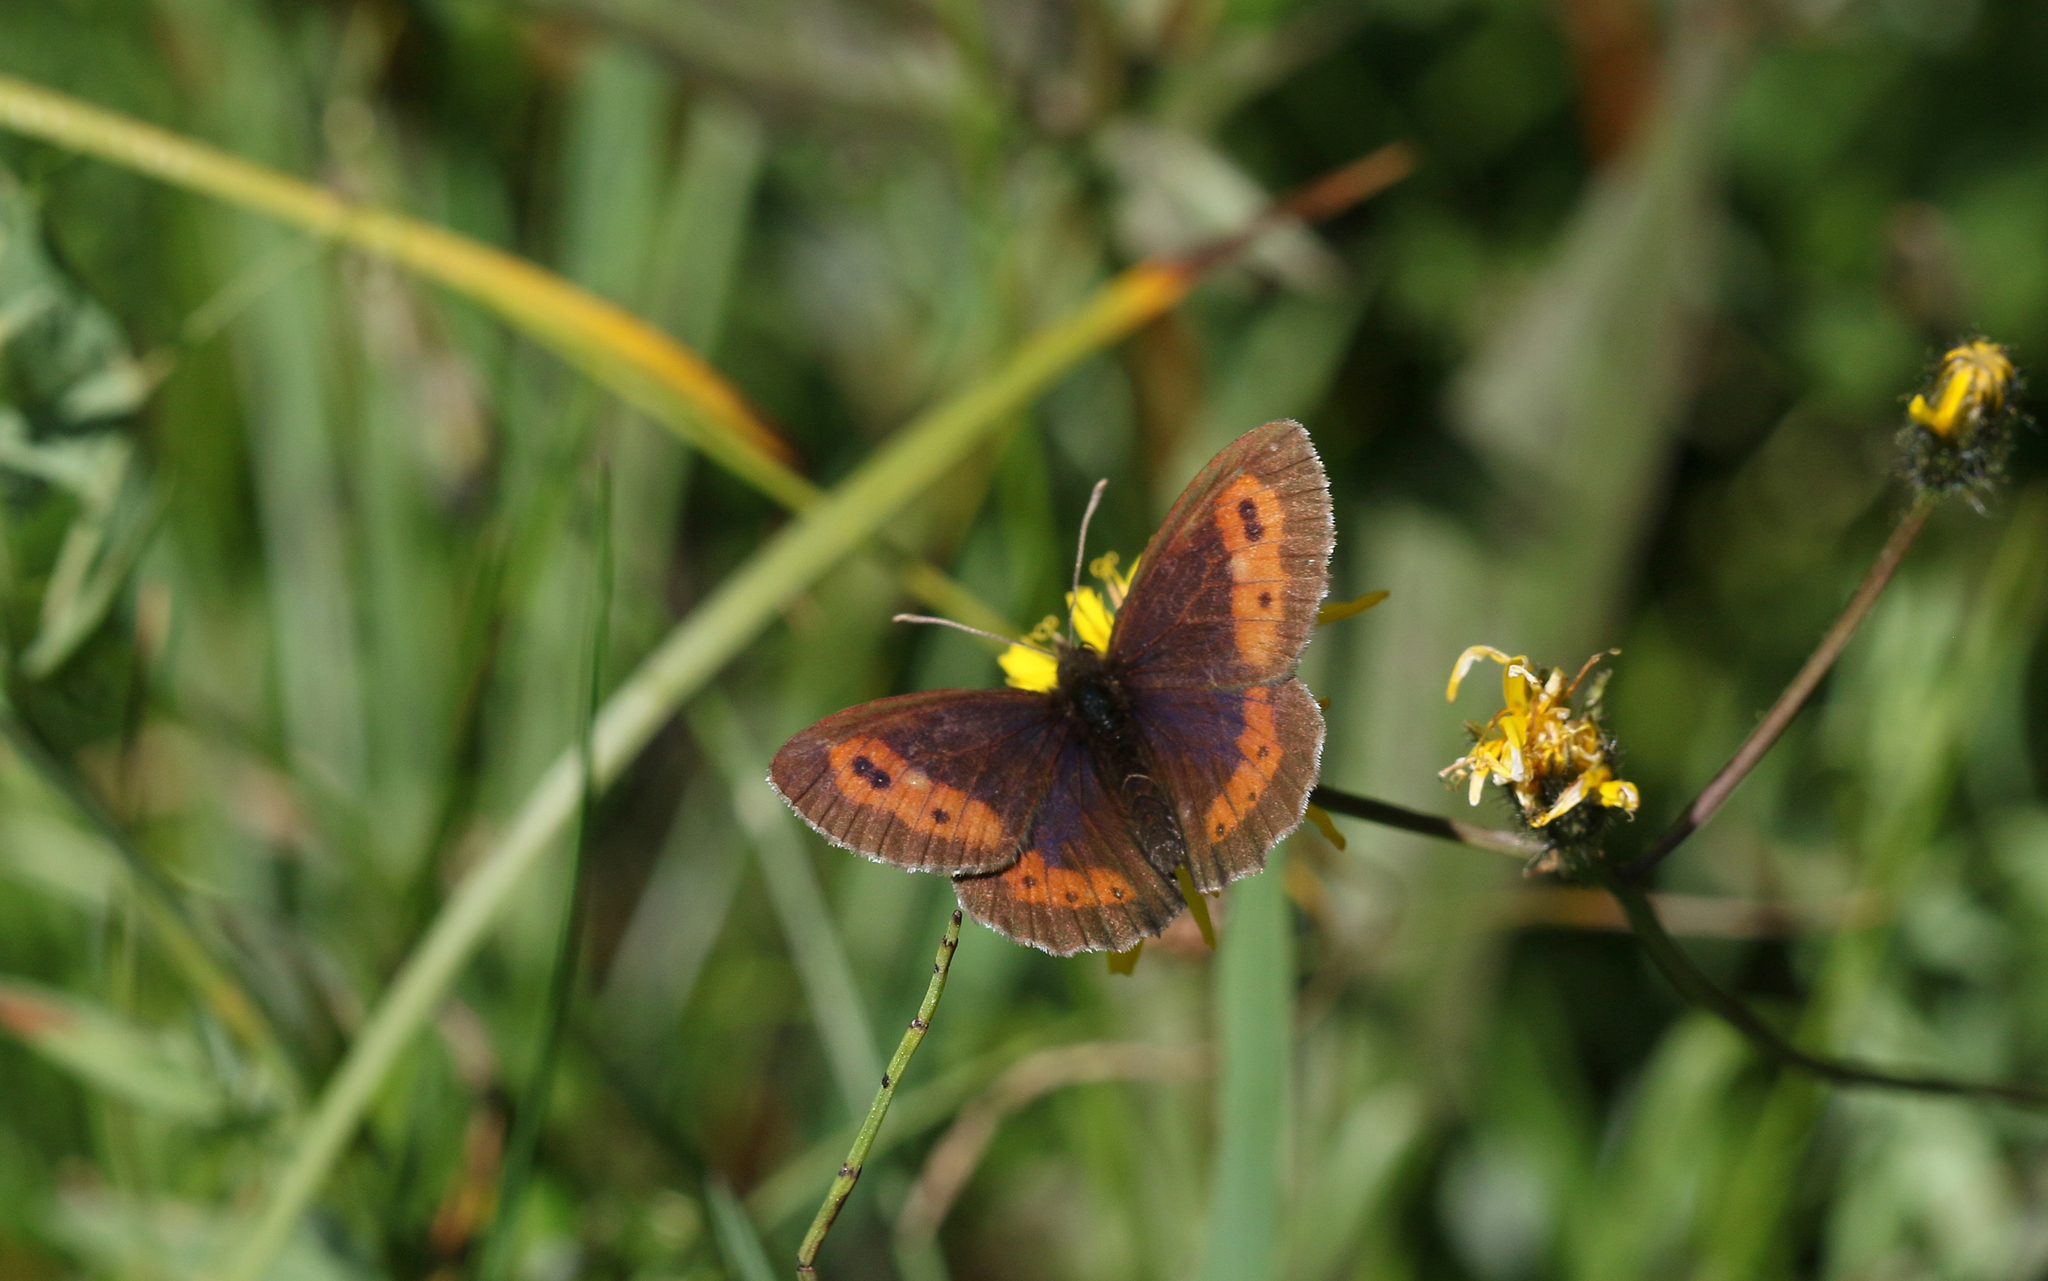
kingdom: Animalia
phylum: Arthropoda
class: Insecta
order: Lepidoptera
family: Nymphalidae
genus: Erebia
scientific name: Erebia euryale
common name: Large ringlet
